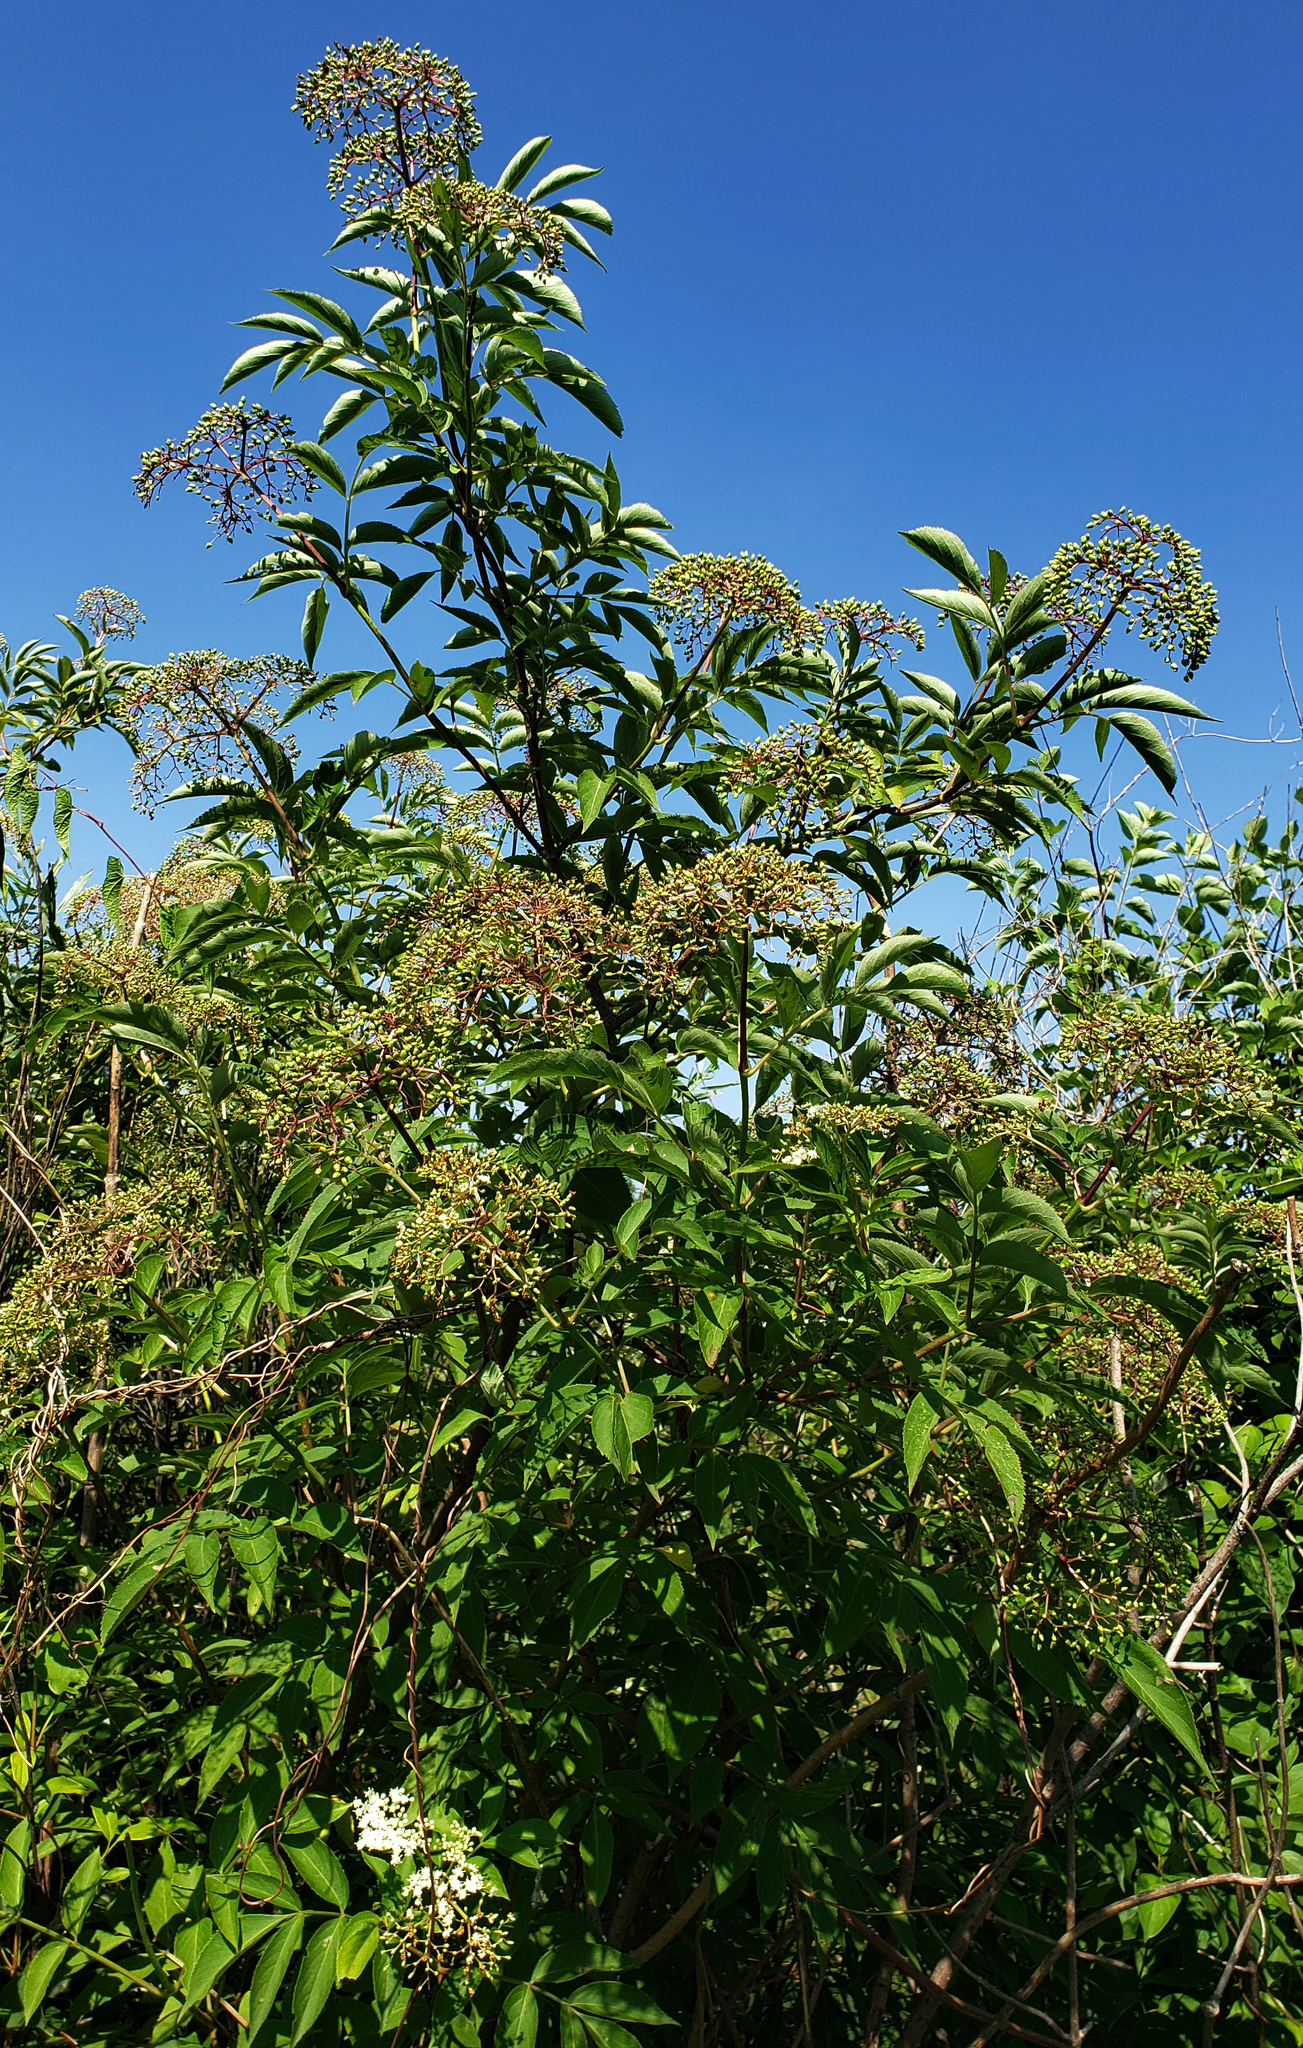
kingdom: Plantae
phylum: Tracheophyta
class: Magnoliopsida
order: Dipsacales
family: Viburnaceae
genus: Sambucus
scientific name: Sambucus canadensis
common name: American elder
